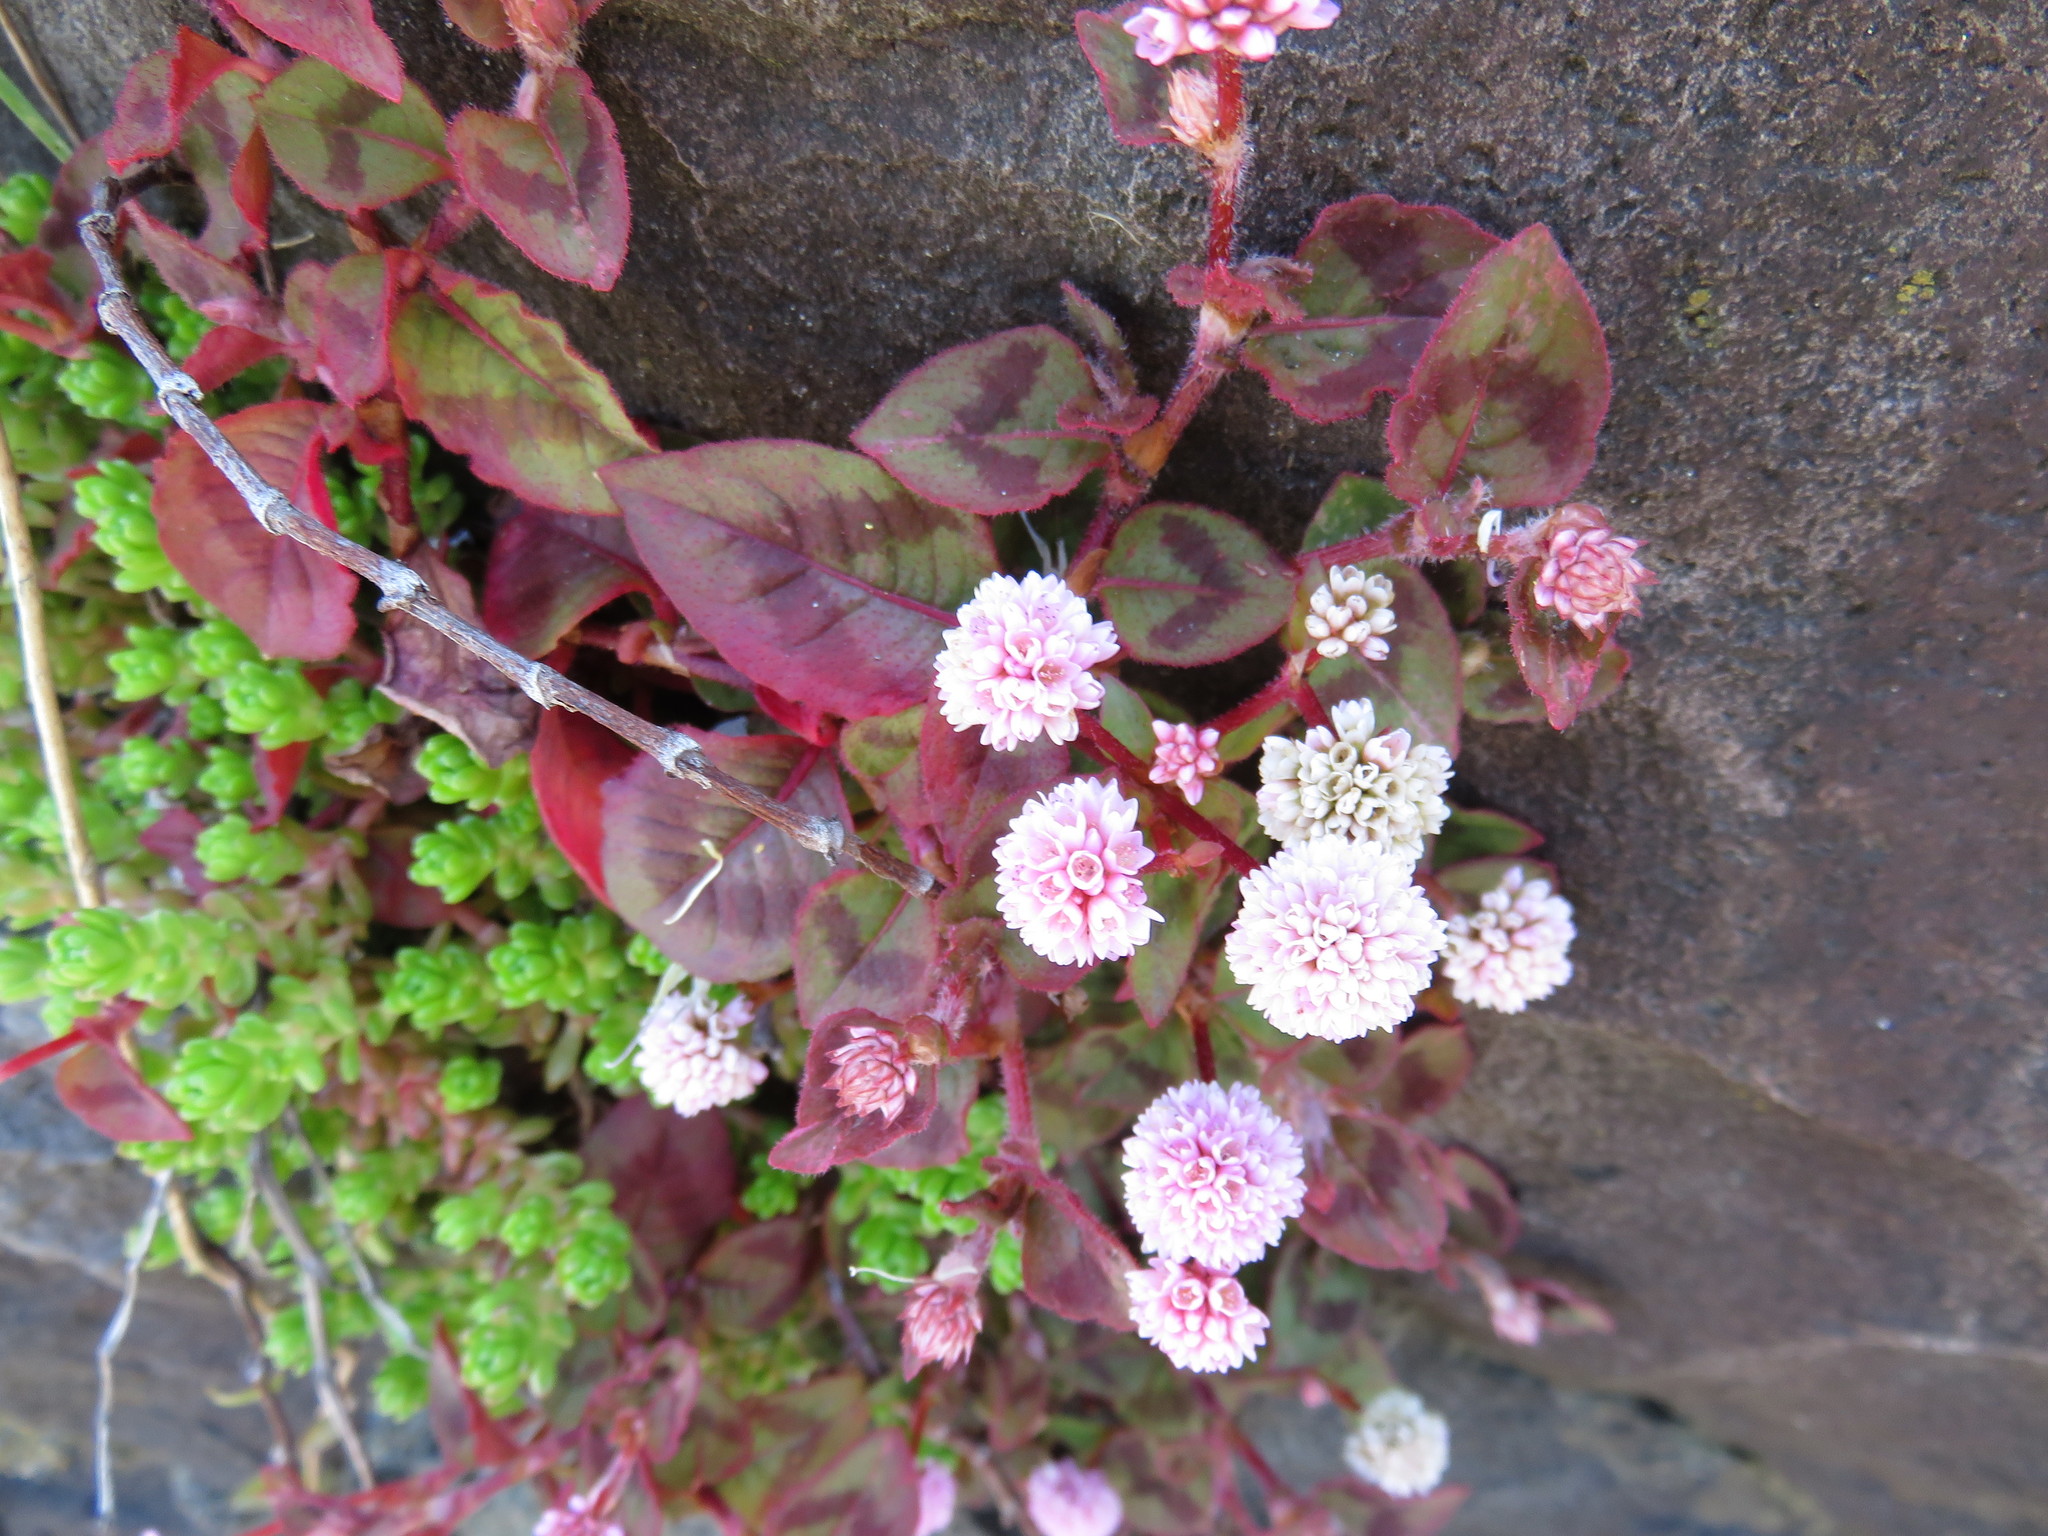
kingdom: Plantae
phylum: Tracheophyta
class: Magnoliopsida
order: Caryophyllales
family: Polygonaceae
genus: Persicaria
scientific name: Persicaria capitata
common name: Pinkhead smartweed
